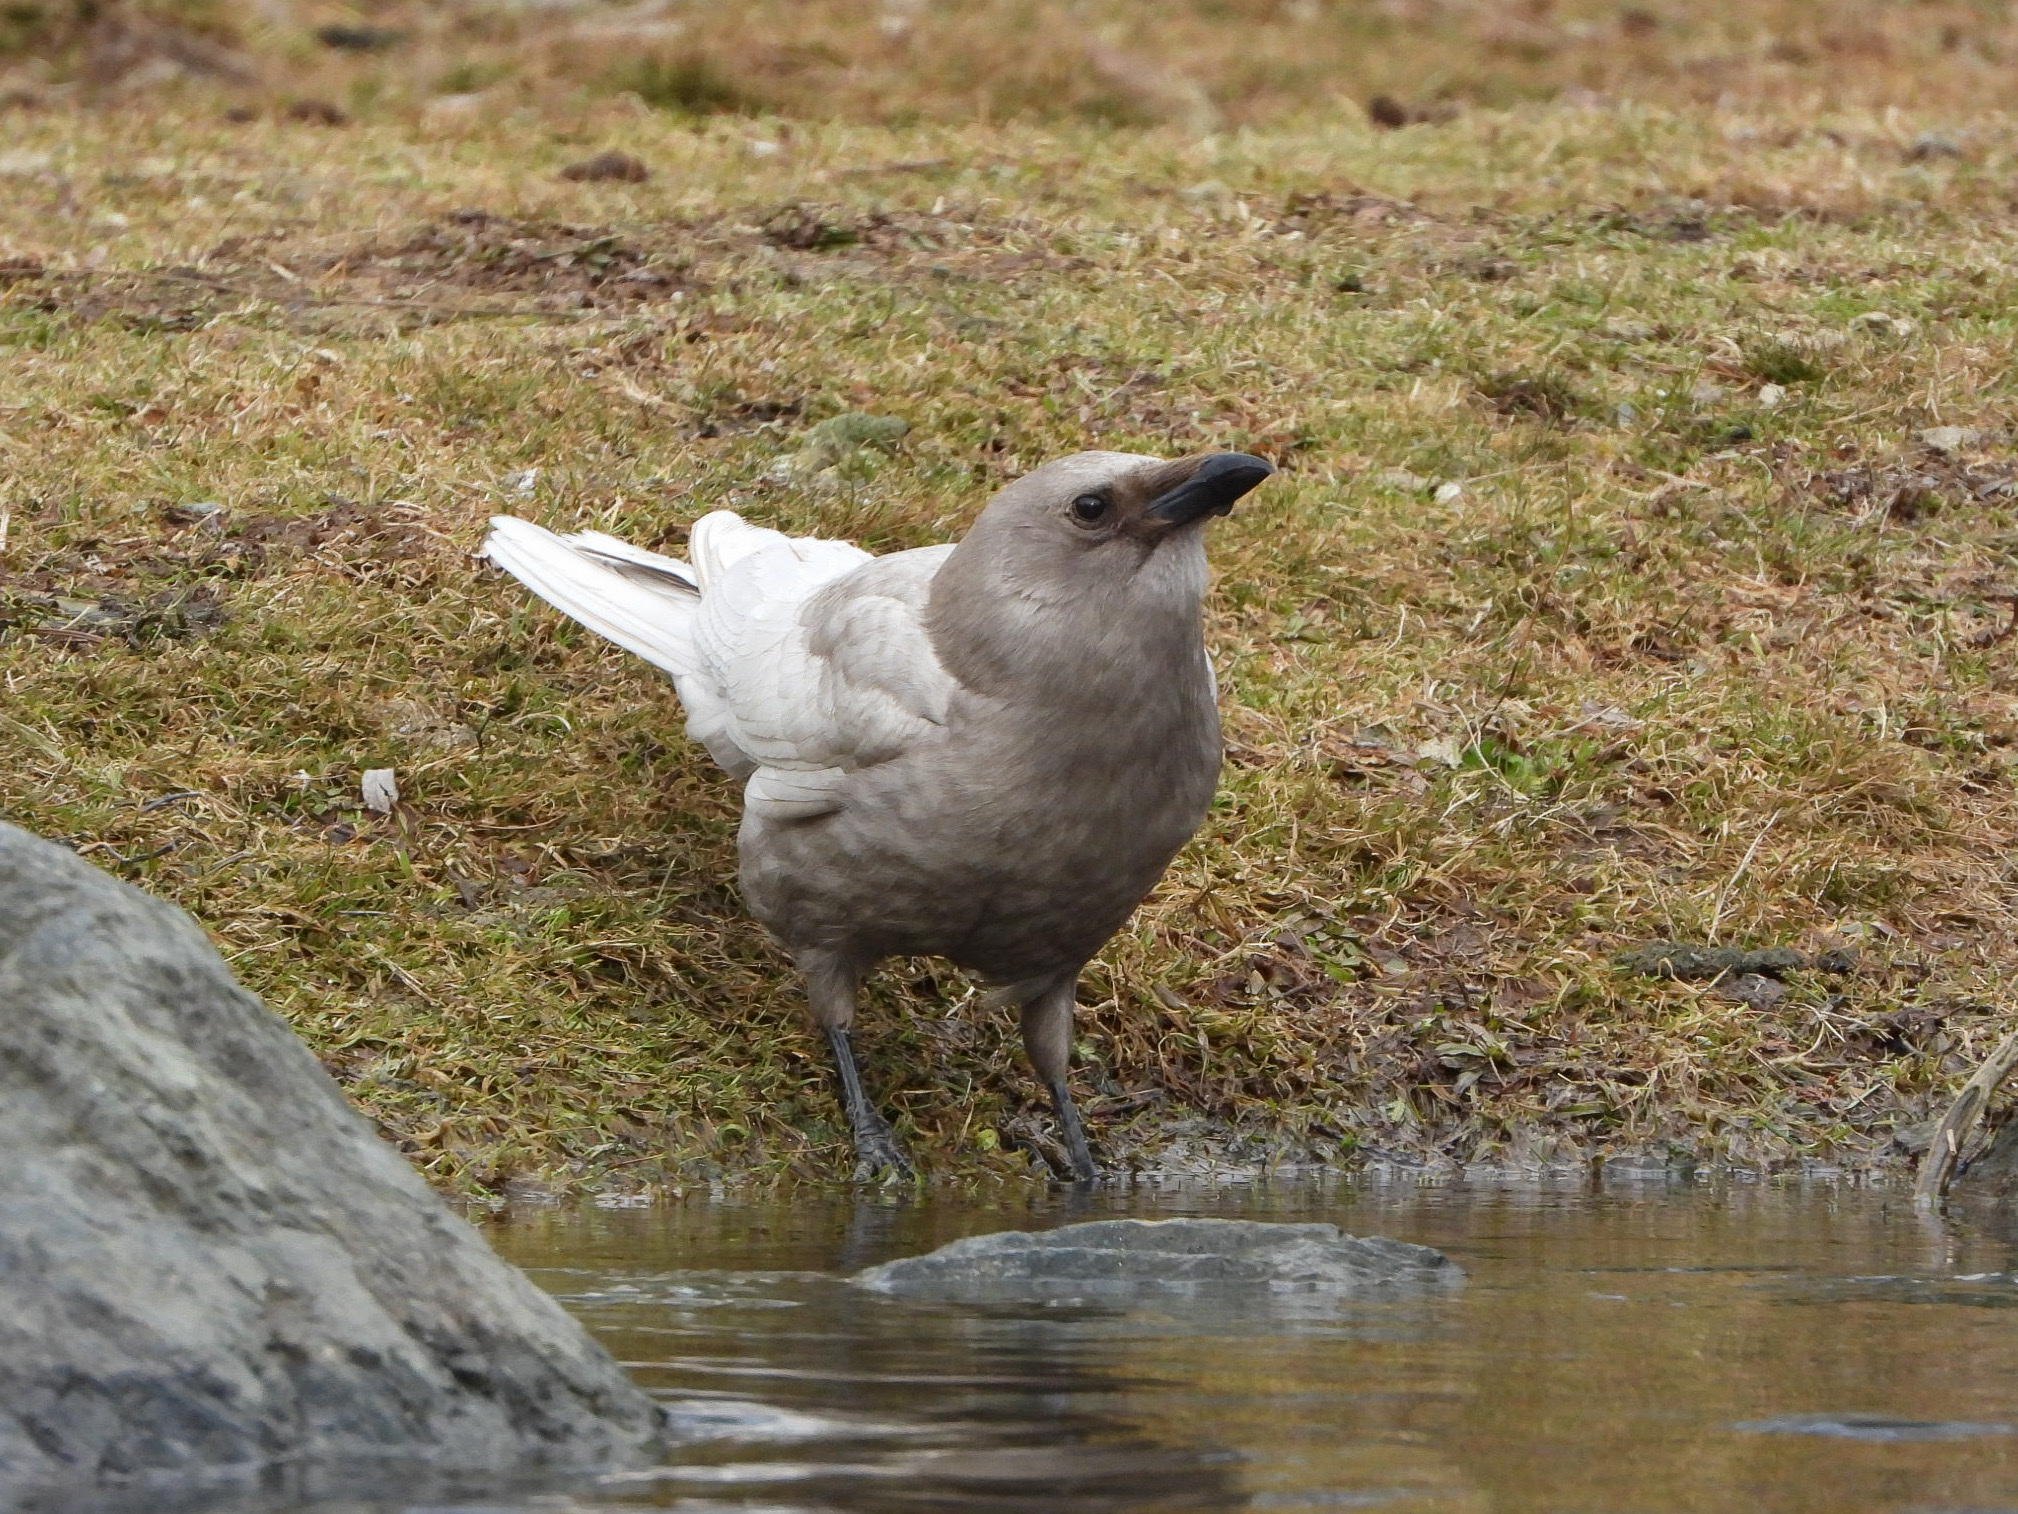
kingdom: Animalia
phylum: Chordata
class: Aves
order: Passeriformes
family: Corvidae
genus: Corvus
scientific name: Corvus brachyrhynchos
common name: American crow
